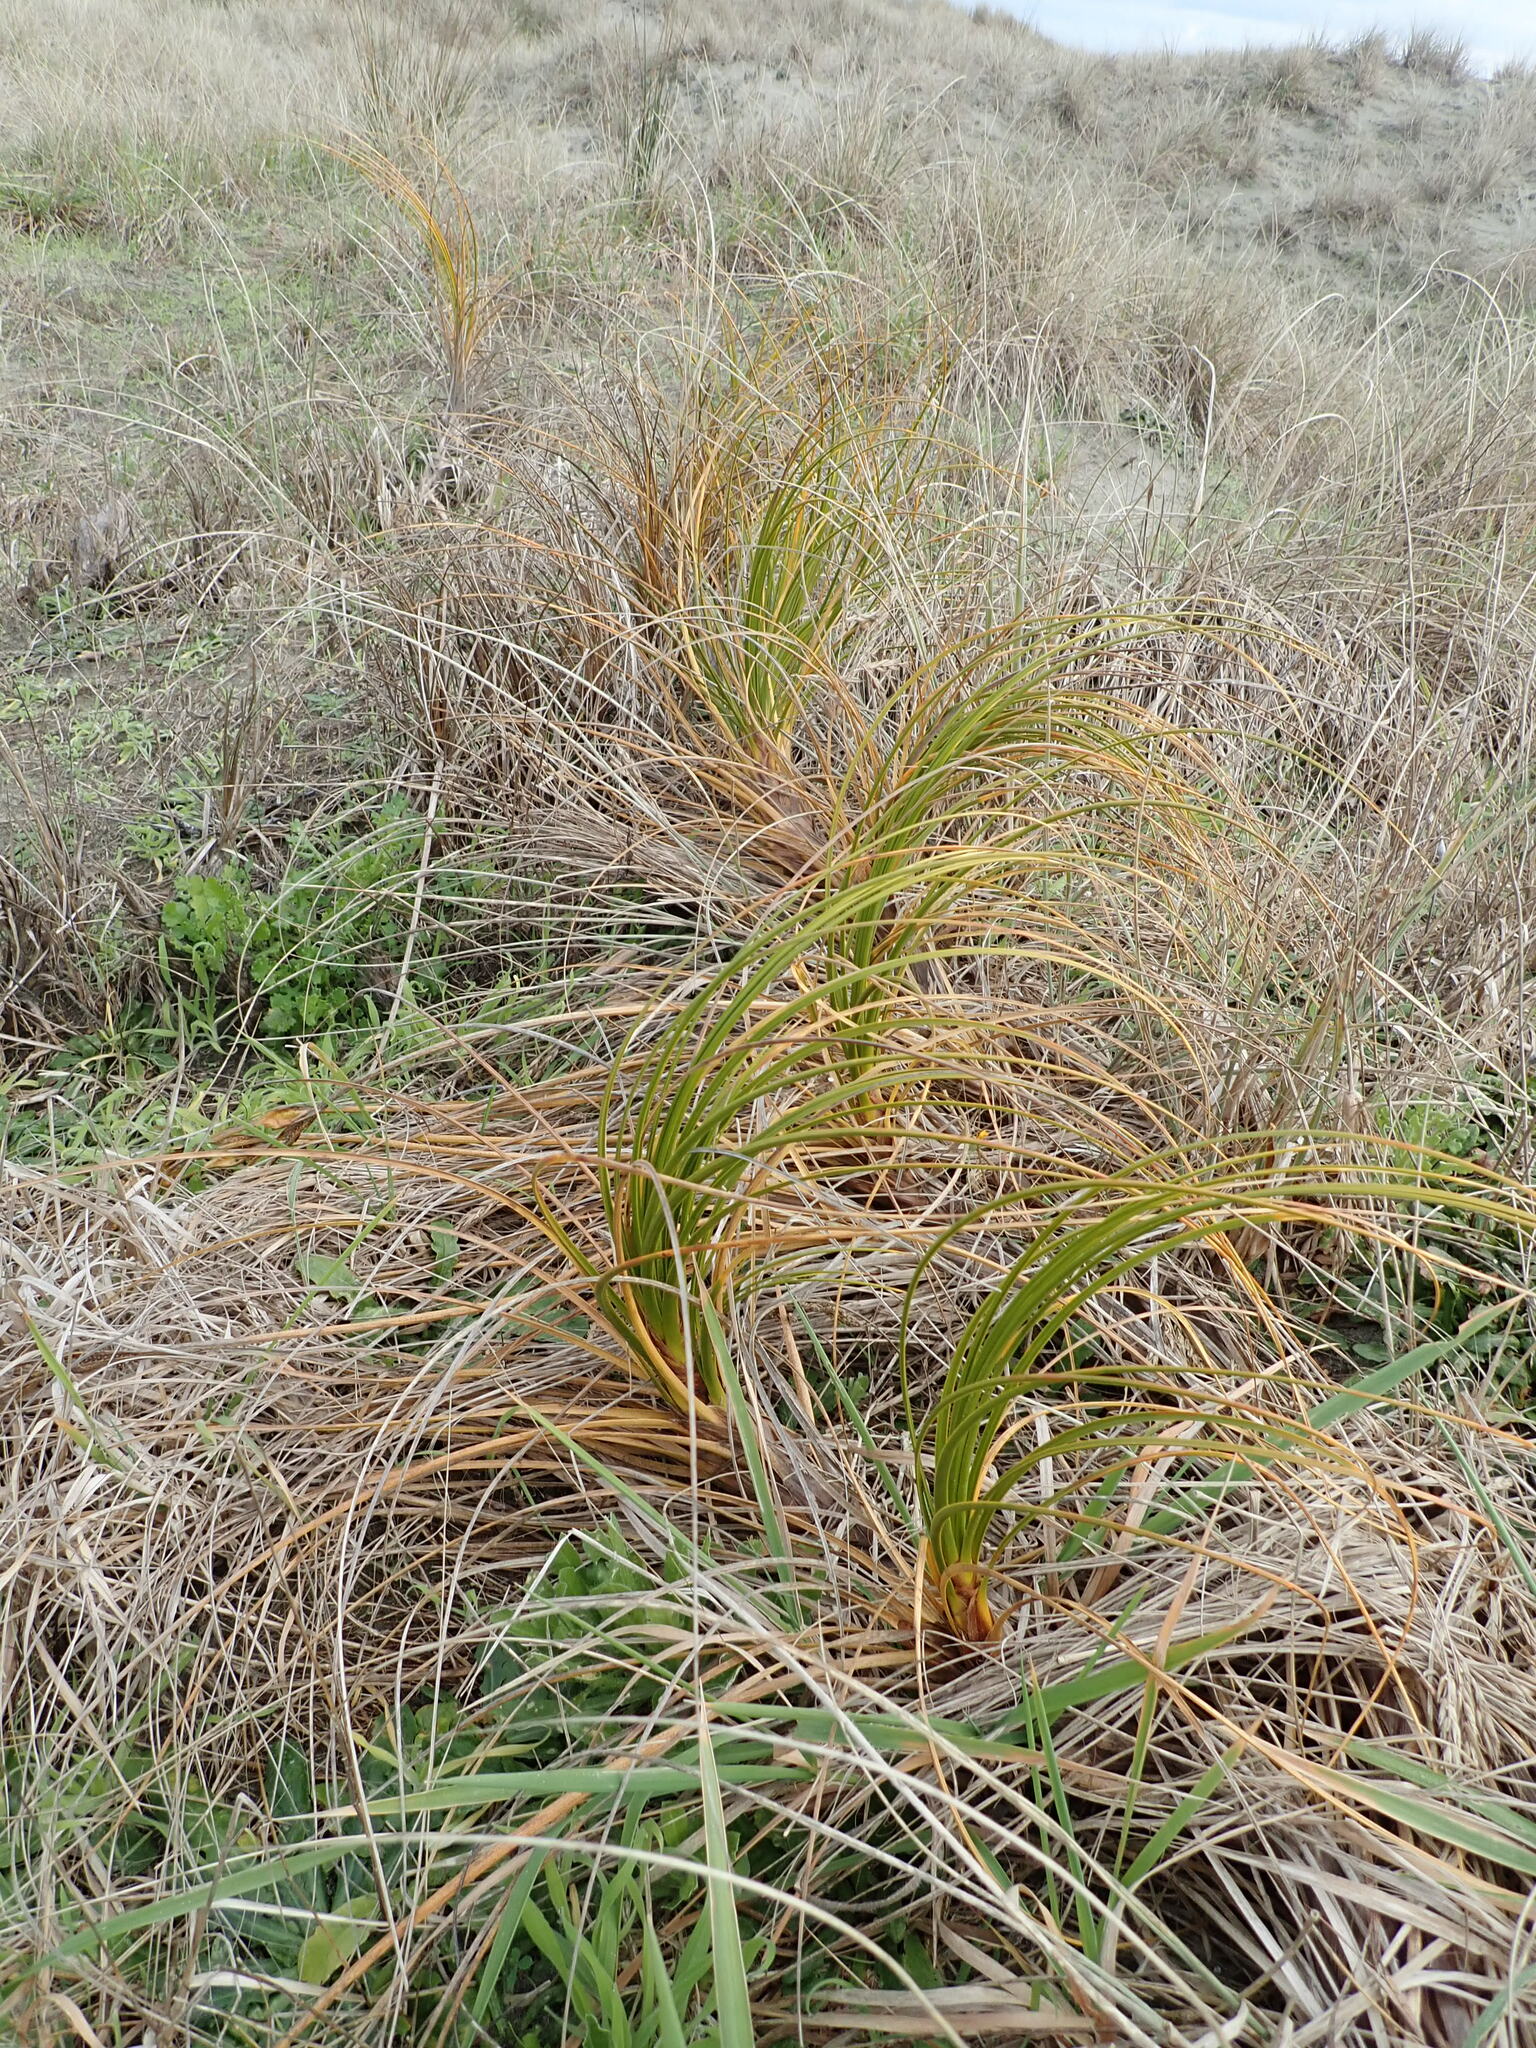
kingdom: Plantae
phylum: Tracheophyta
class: Liliopsida
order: Poales
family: Cyperaceae
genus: Ficinia
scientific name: Ficinia spiralis
